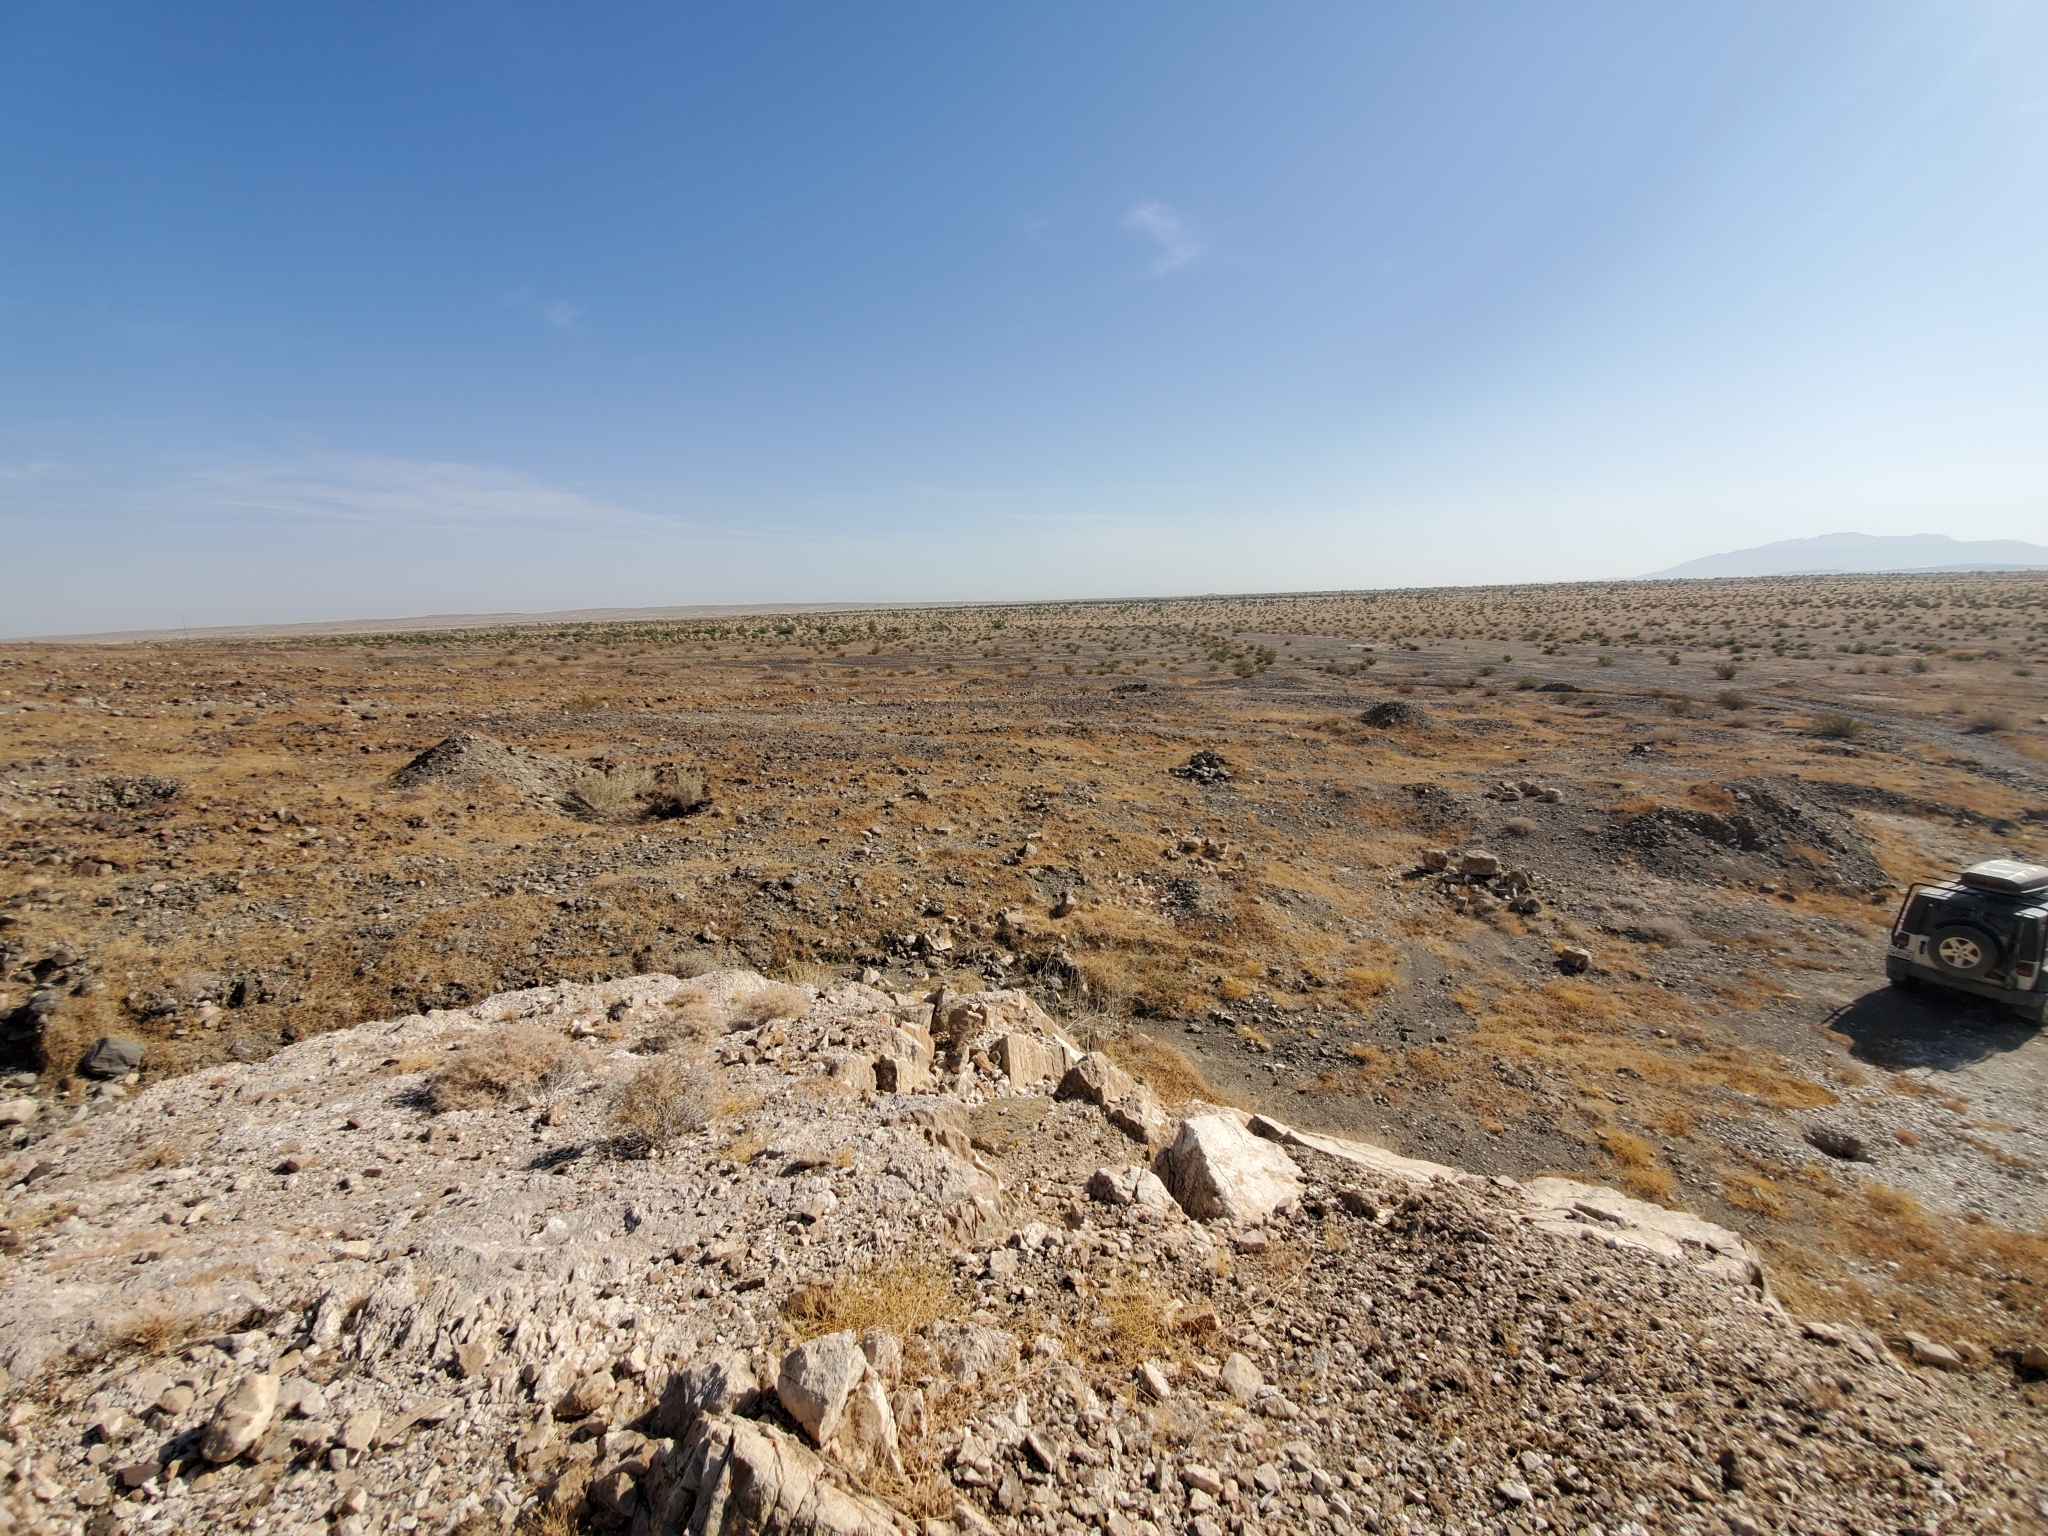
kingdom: Plantae
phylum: Tracheophyta
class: Magnoliopsida
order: Caryophyllales
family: Nyctaginaceae
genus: Allionia
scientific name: Allionia incarnata
